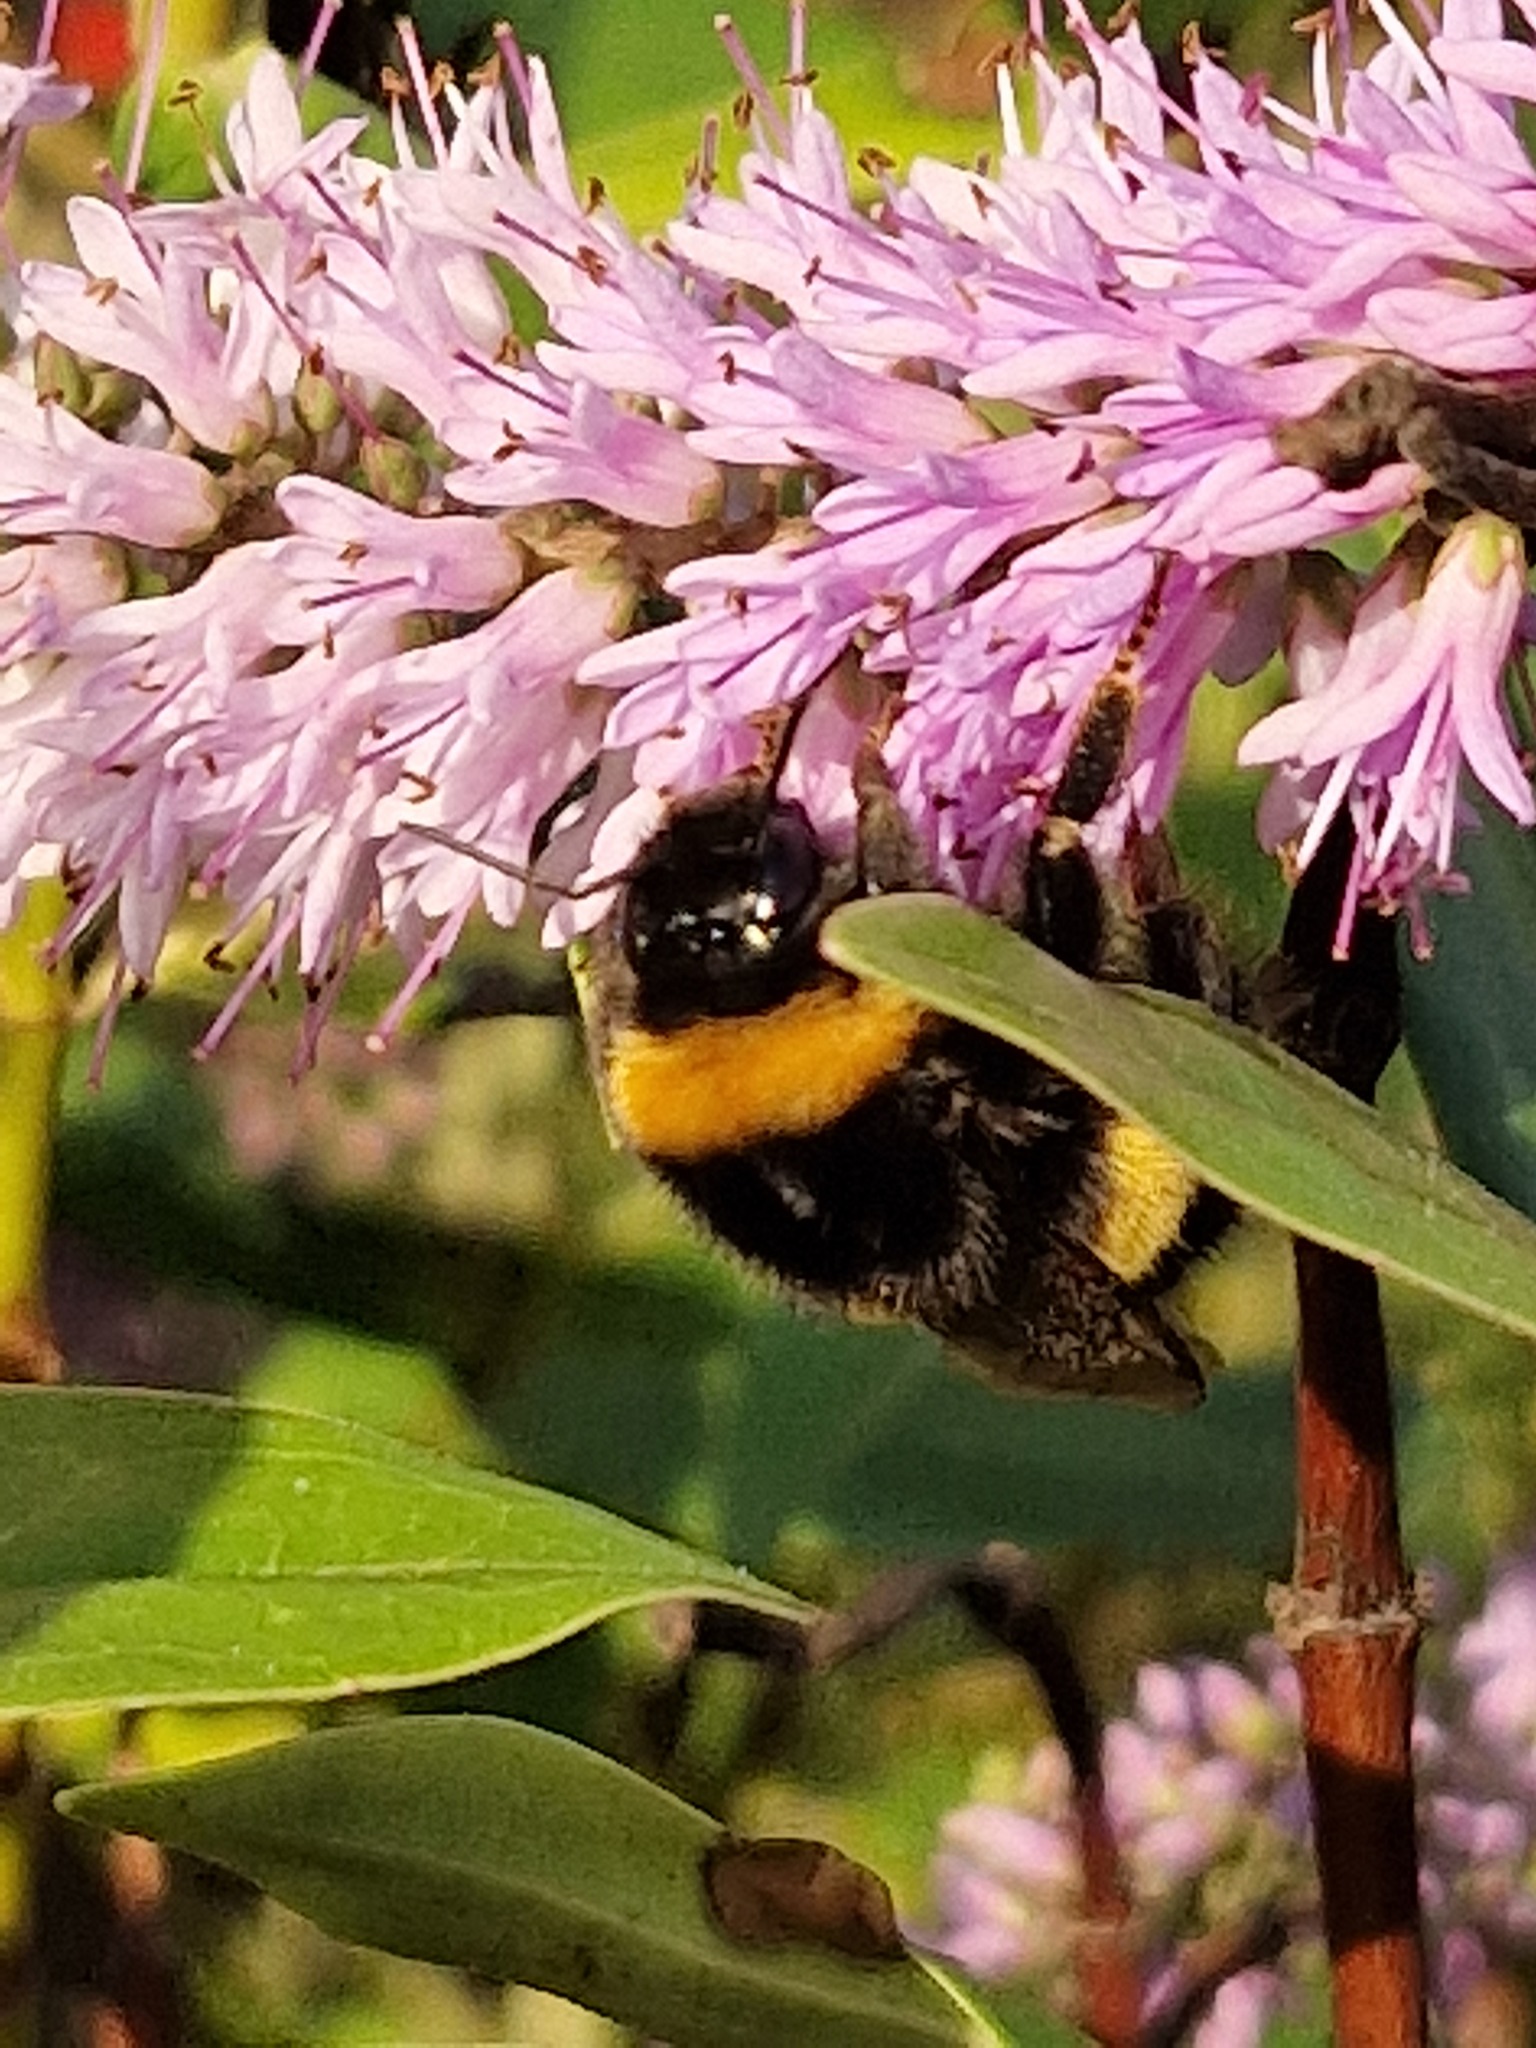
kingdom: Animalia
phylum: Arthropoda
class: Insecta
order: Hymenoptera
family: Apidae
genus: Bombus
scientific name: Bombus terrestris
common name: Buff-tailed bumblebee
